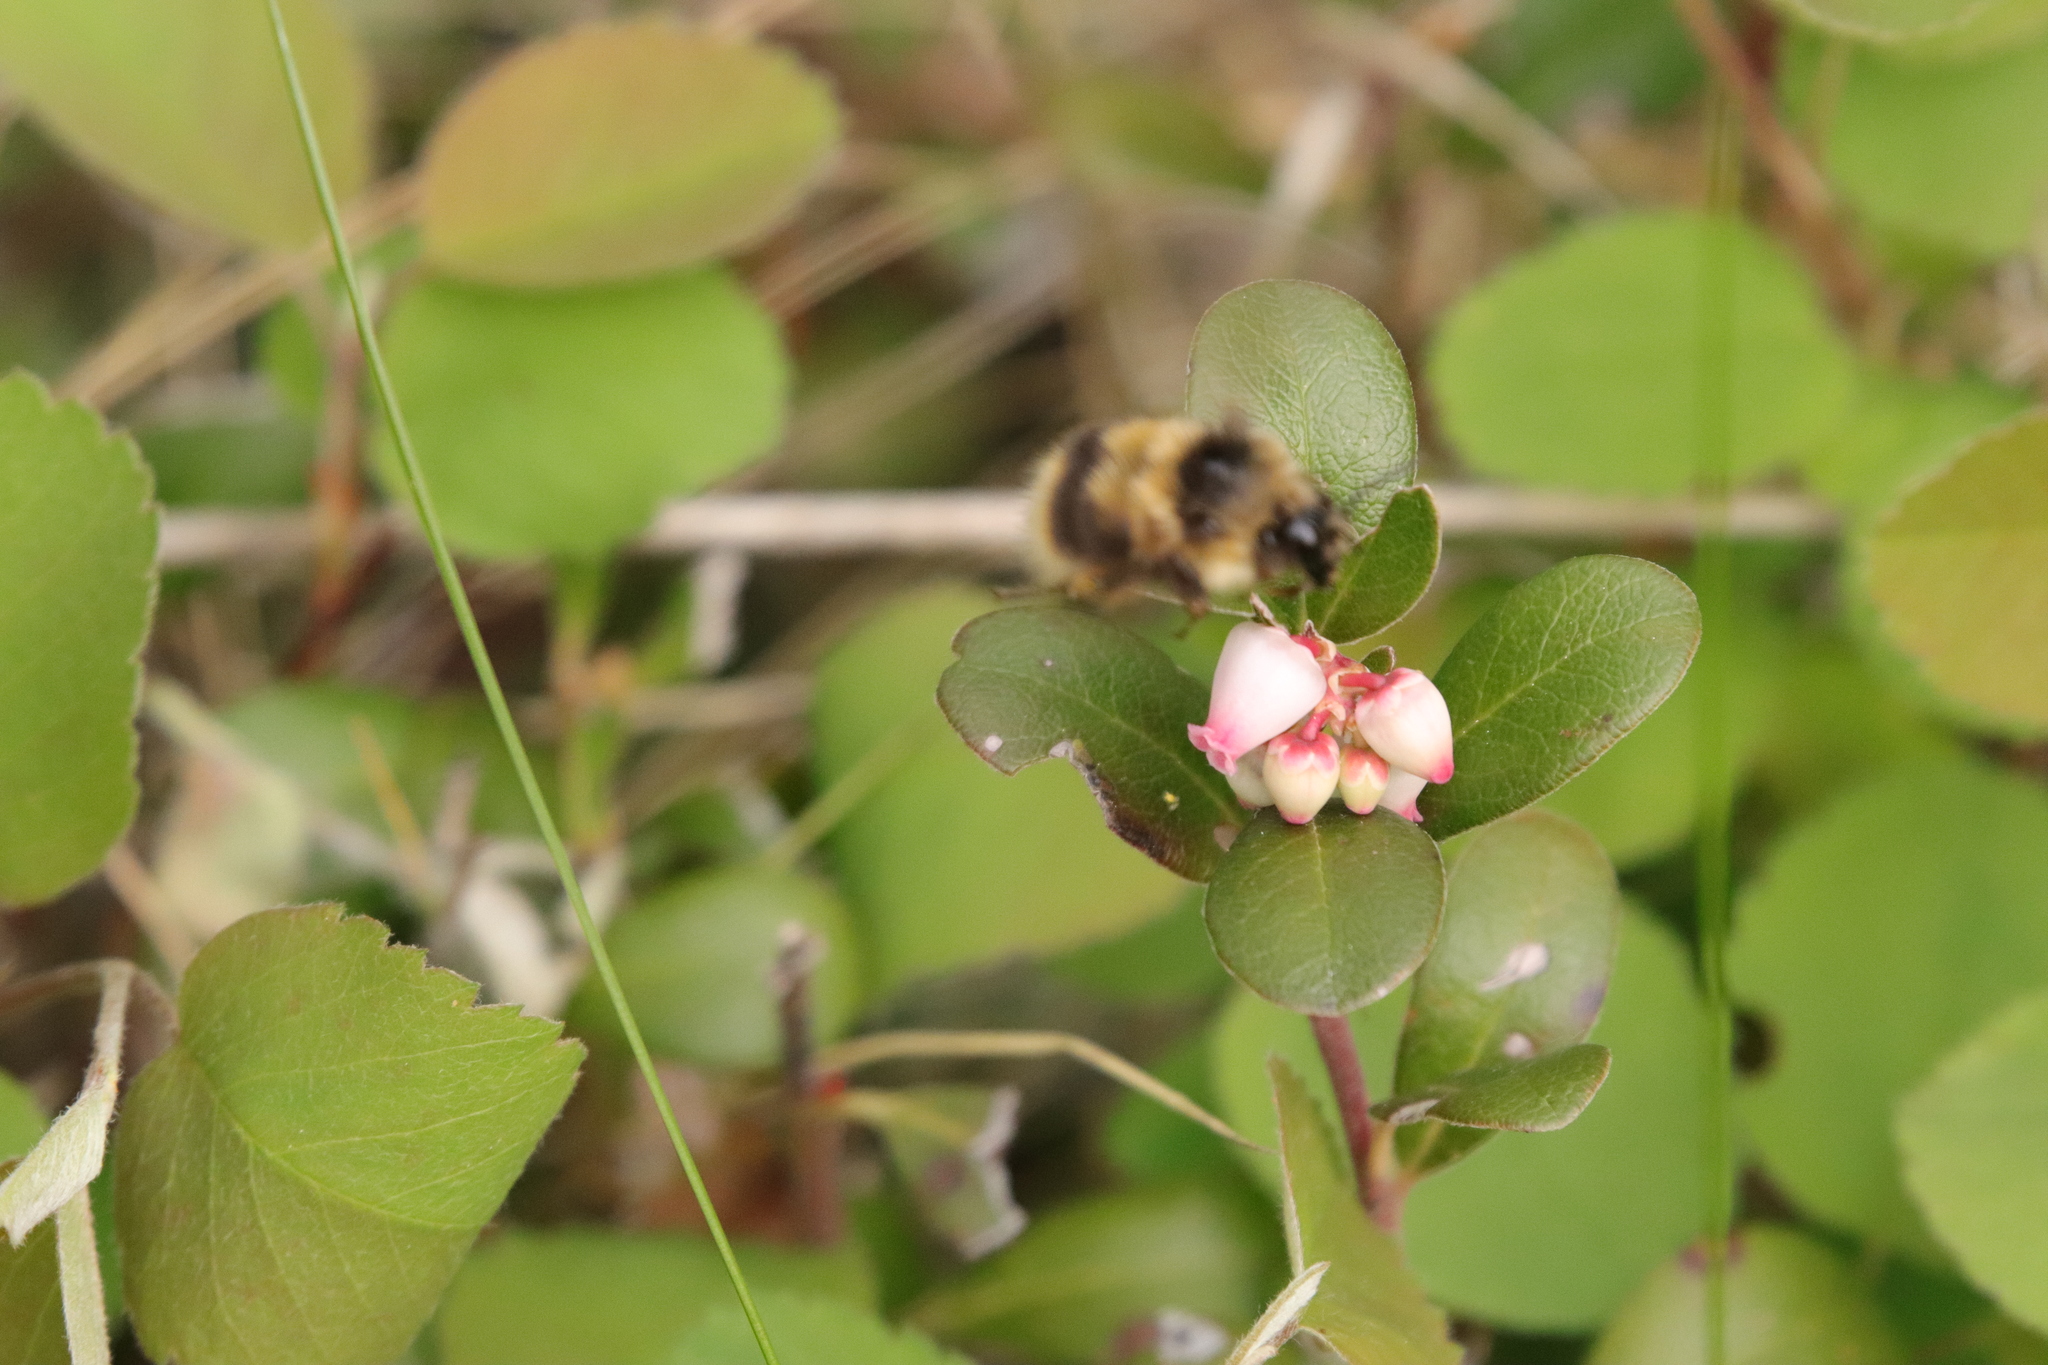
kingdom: Animalia
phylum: Arthropoda
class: Insecta
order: Hymenoptera
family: Apidae
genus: Bombus
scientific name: Bombus mixtus
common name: Fuzzy-horned bumble bee
